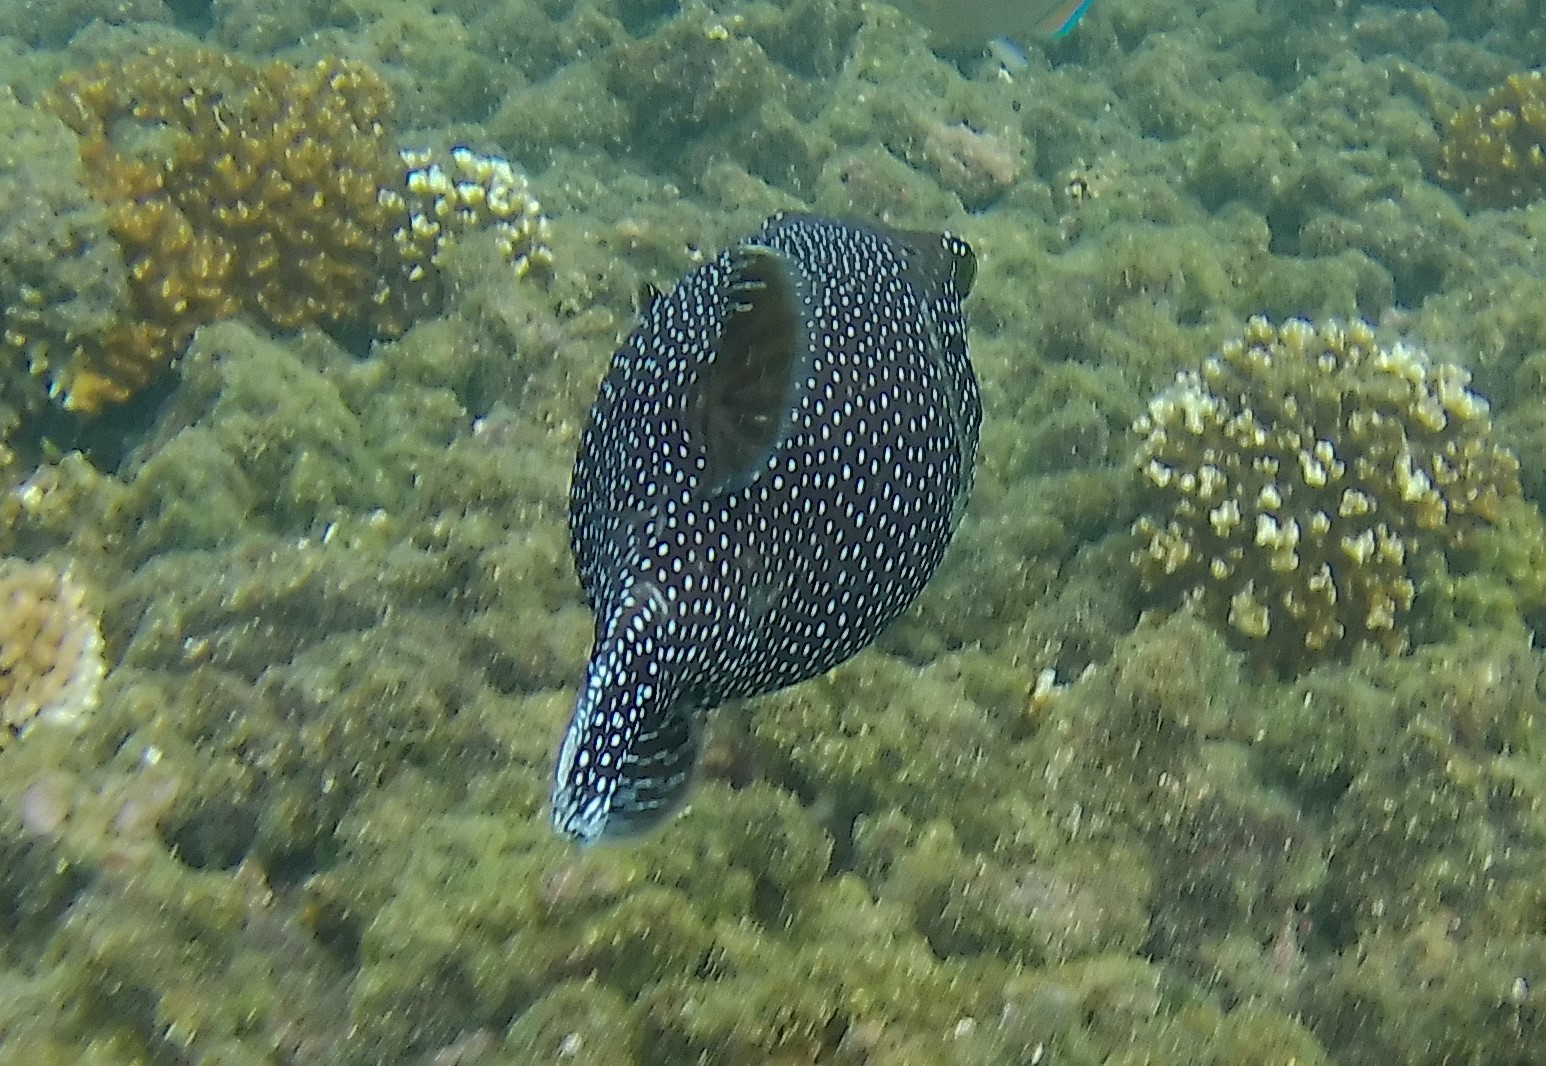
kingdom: Animalia
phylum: Chordata
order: Tetraodontiformes
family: Tetraodontidae
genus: Arothron
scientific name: Arothron meleagris
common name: Guinea-fowl pufferfish
